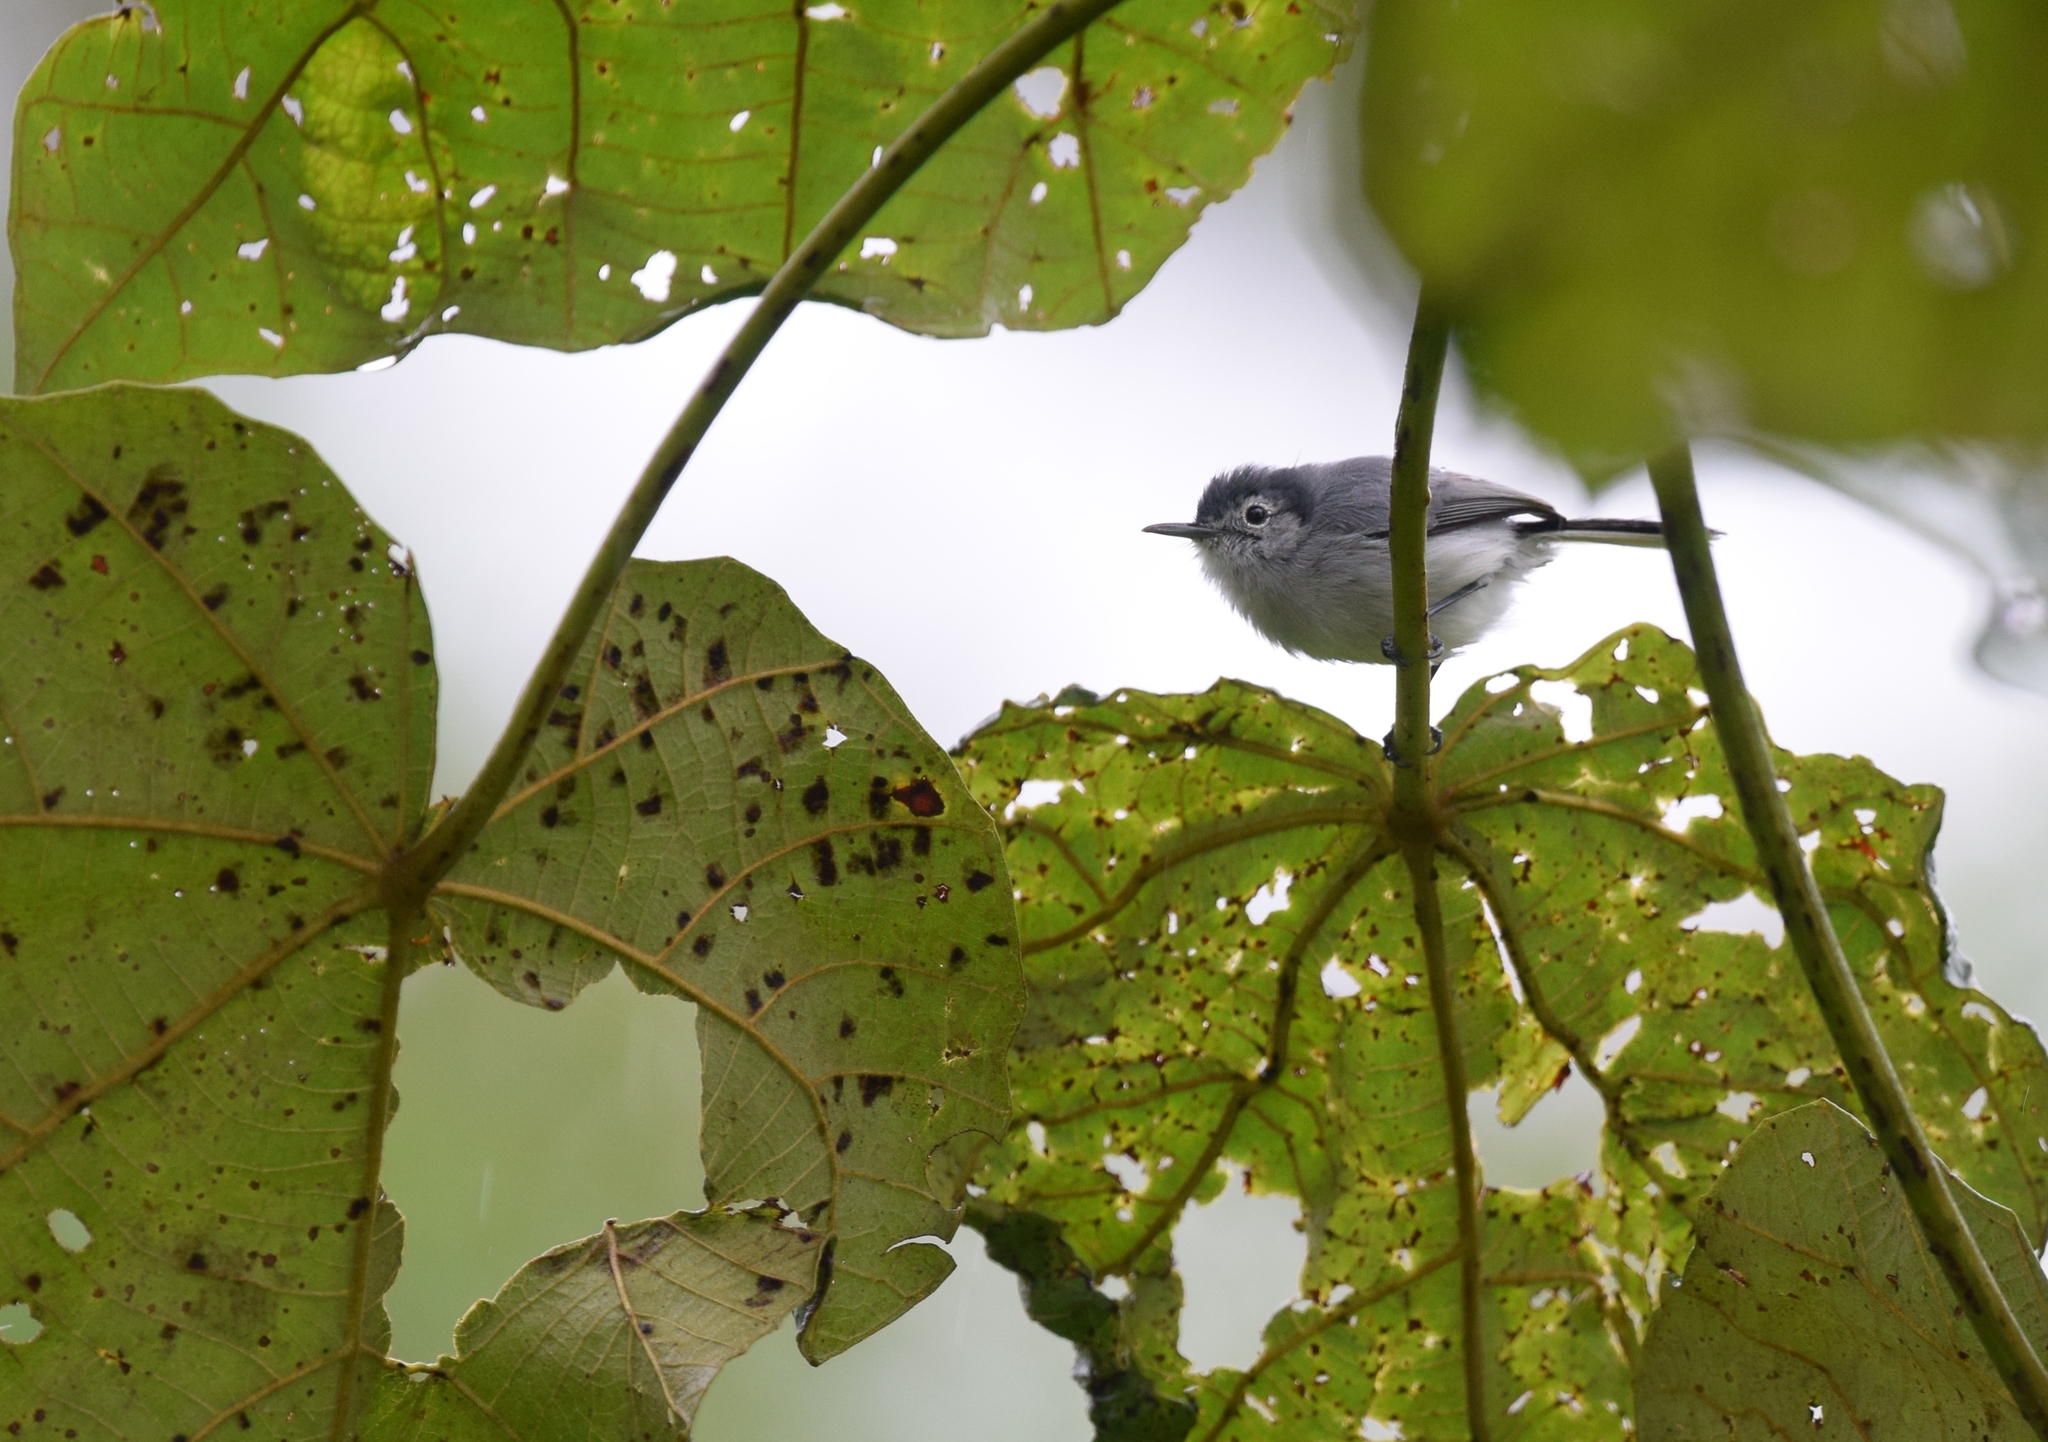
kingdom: Animalia
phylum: Chordata
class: Aves
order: Passeriformes
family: Polioptilidae
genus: Polioptila
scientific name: Polioptila plumbea
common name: Tropical gnatcatcher
